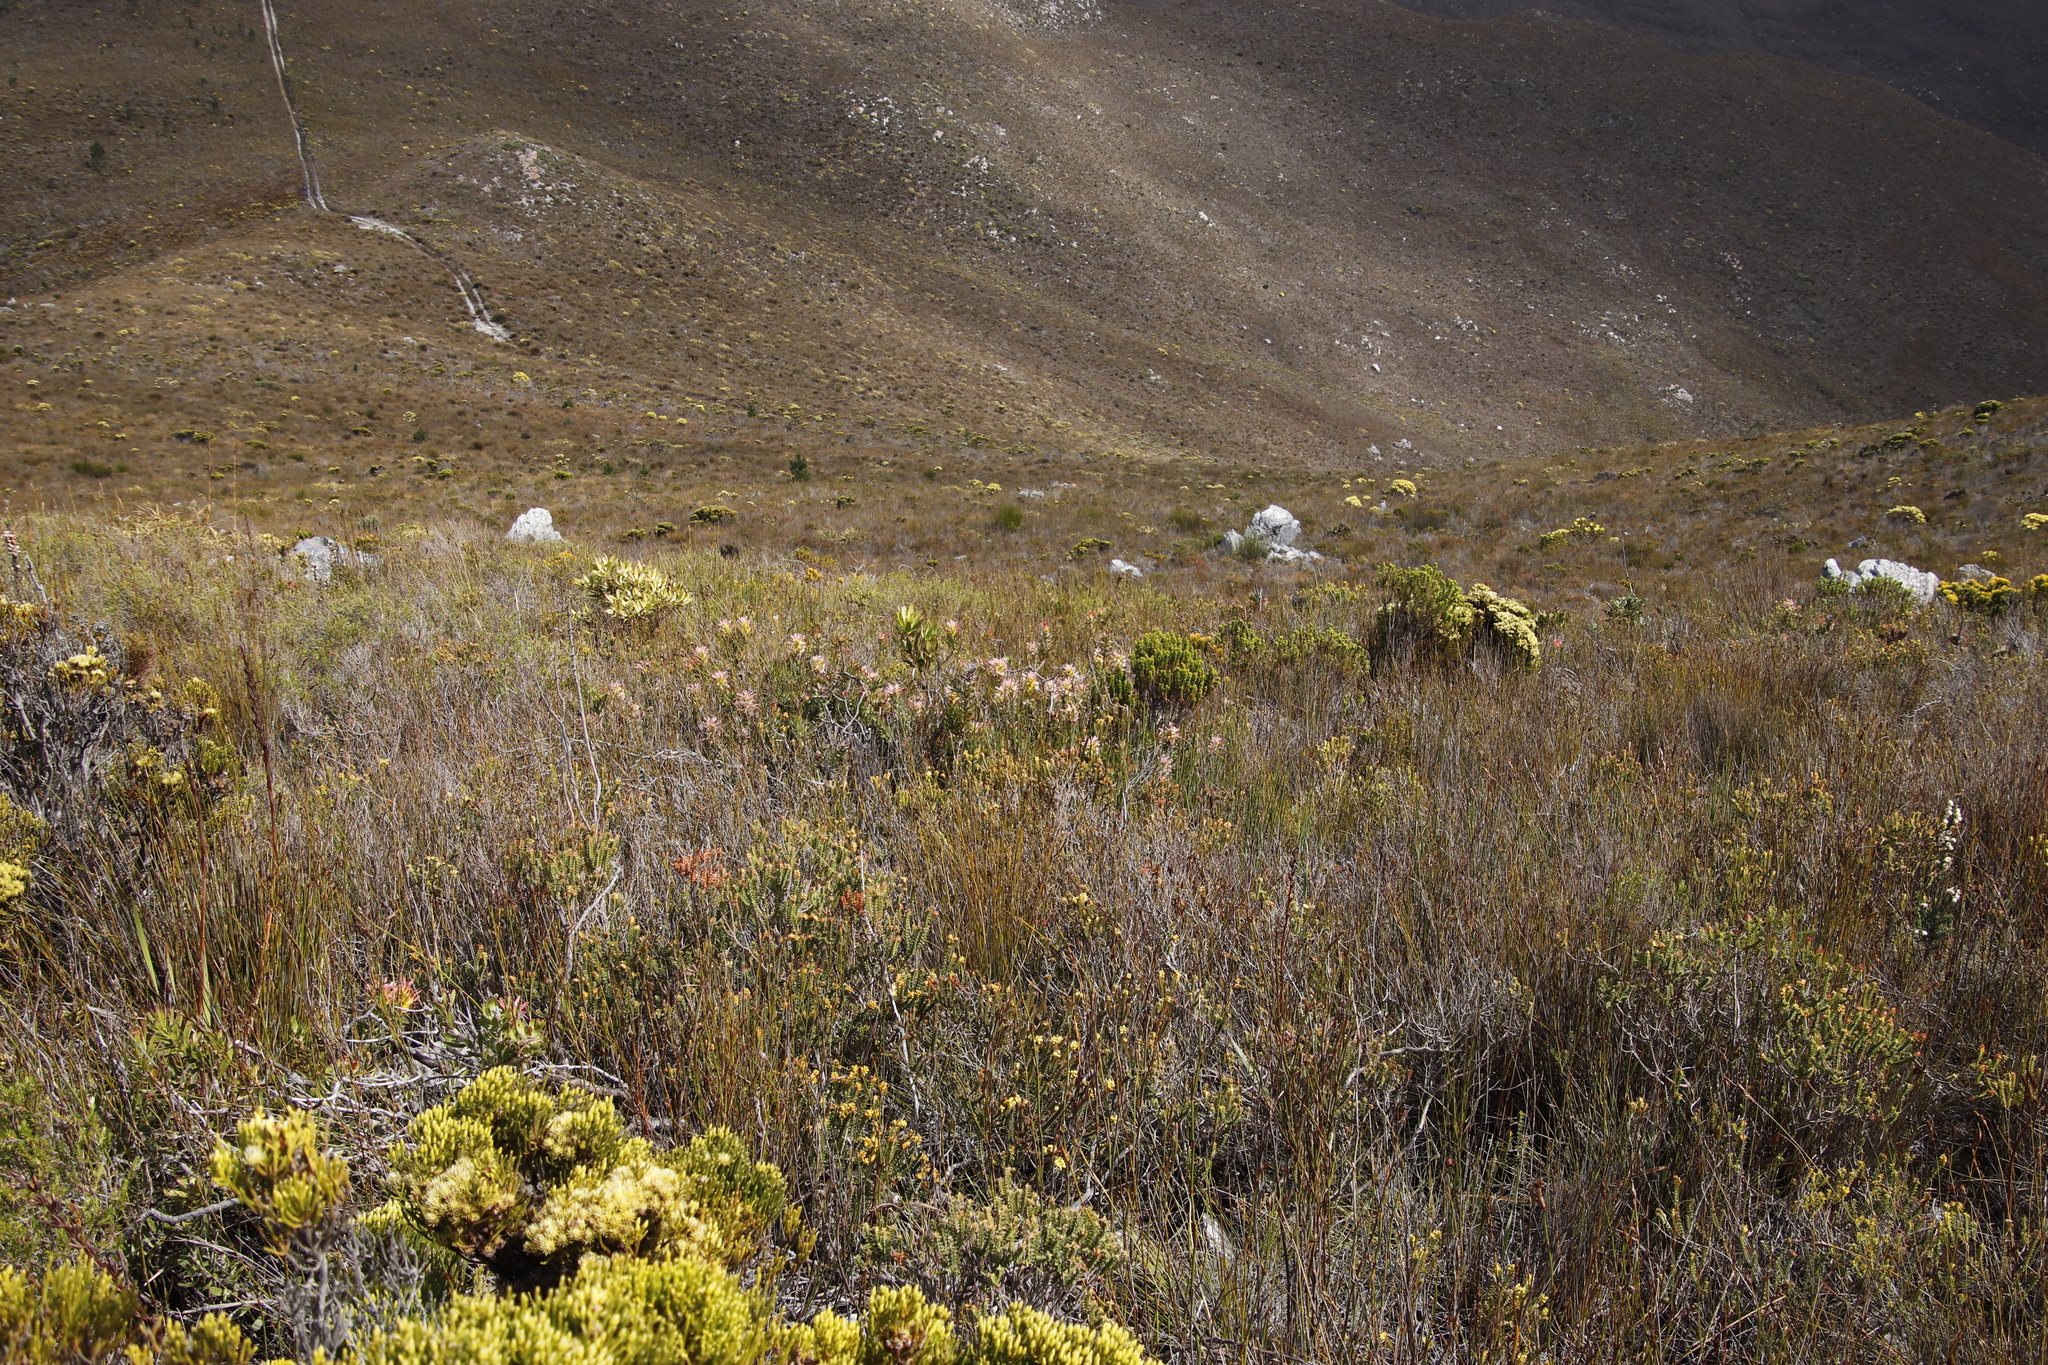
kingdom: Plantae
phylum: Tracheophyta
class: Magnoliopsida
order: Proteales
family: Proteaceae
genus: Mimetes
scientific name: Mimetes cucullatus
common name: Common pagoda
